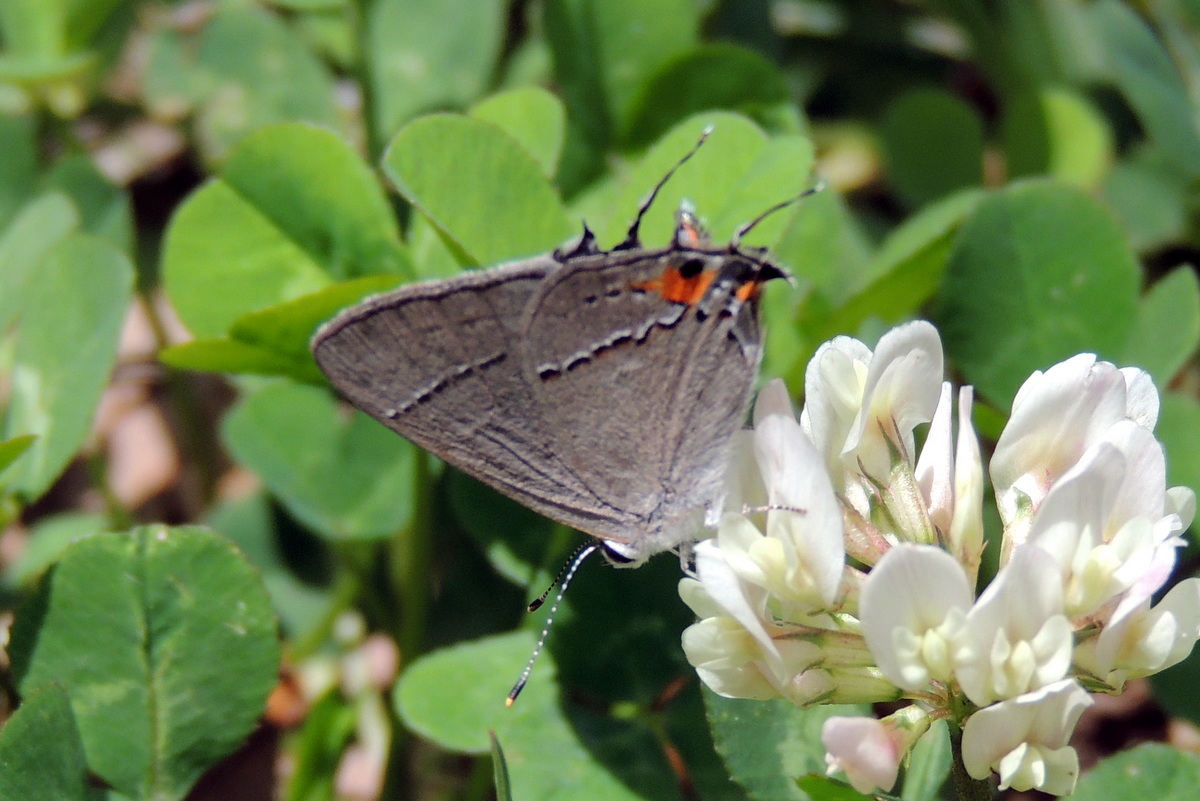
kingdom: Animalia
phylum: Arthropoda
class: Insecta
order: Lepidoptera
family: Lycaenidae
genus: Strymon
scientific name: Strymon melinus
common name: Gray hairstreak
